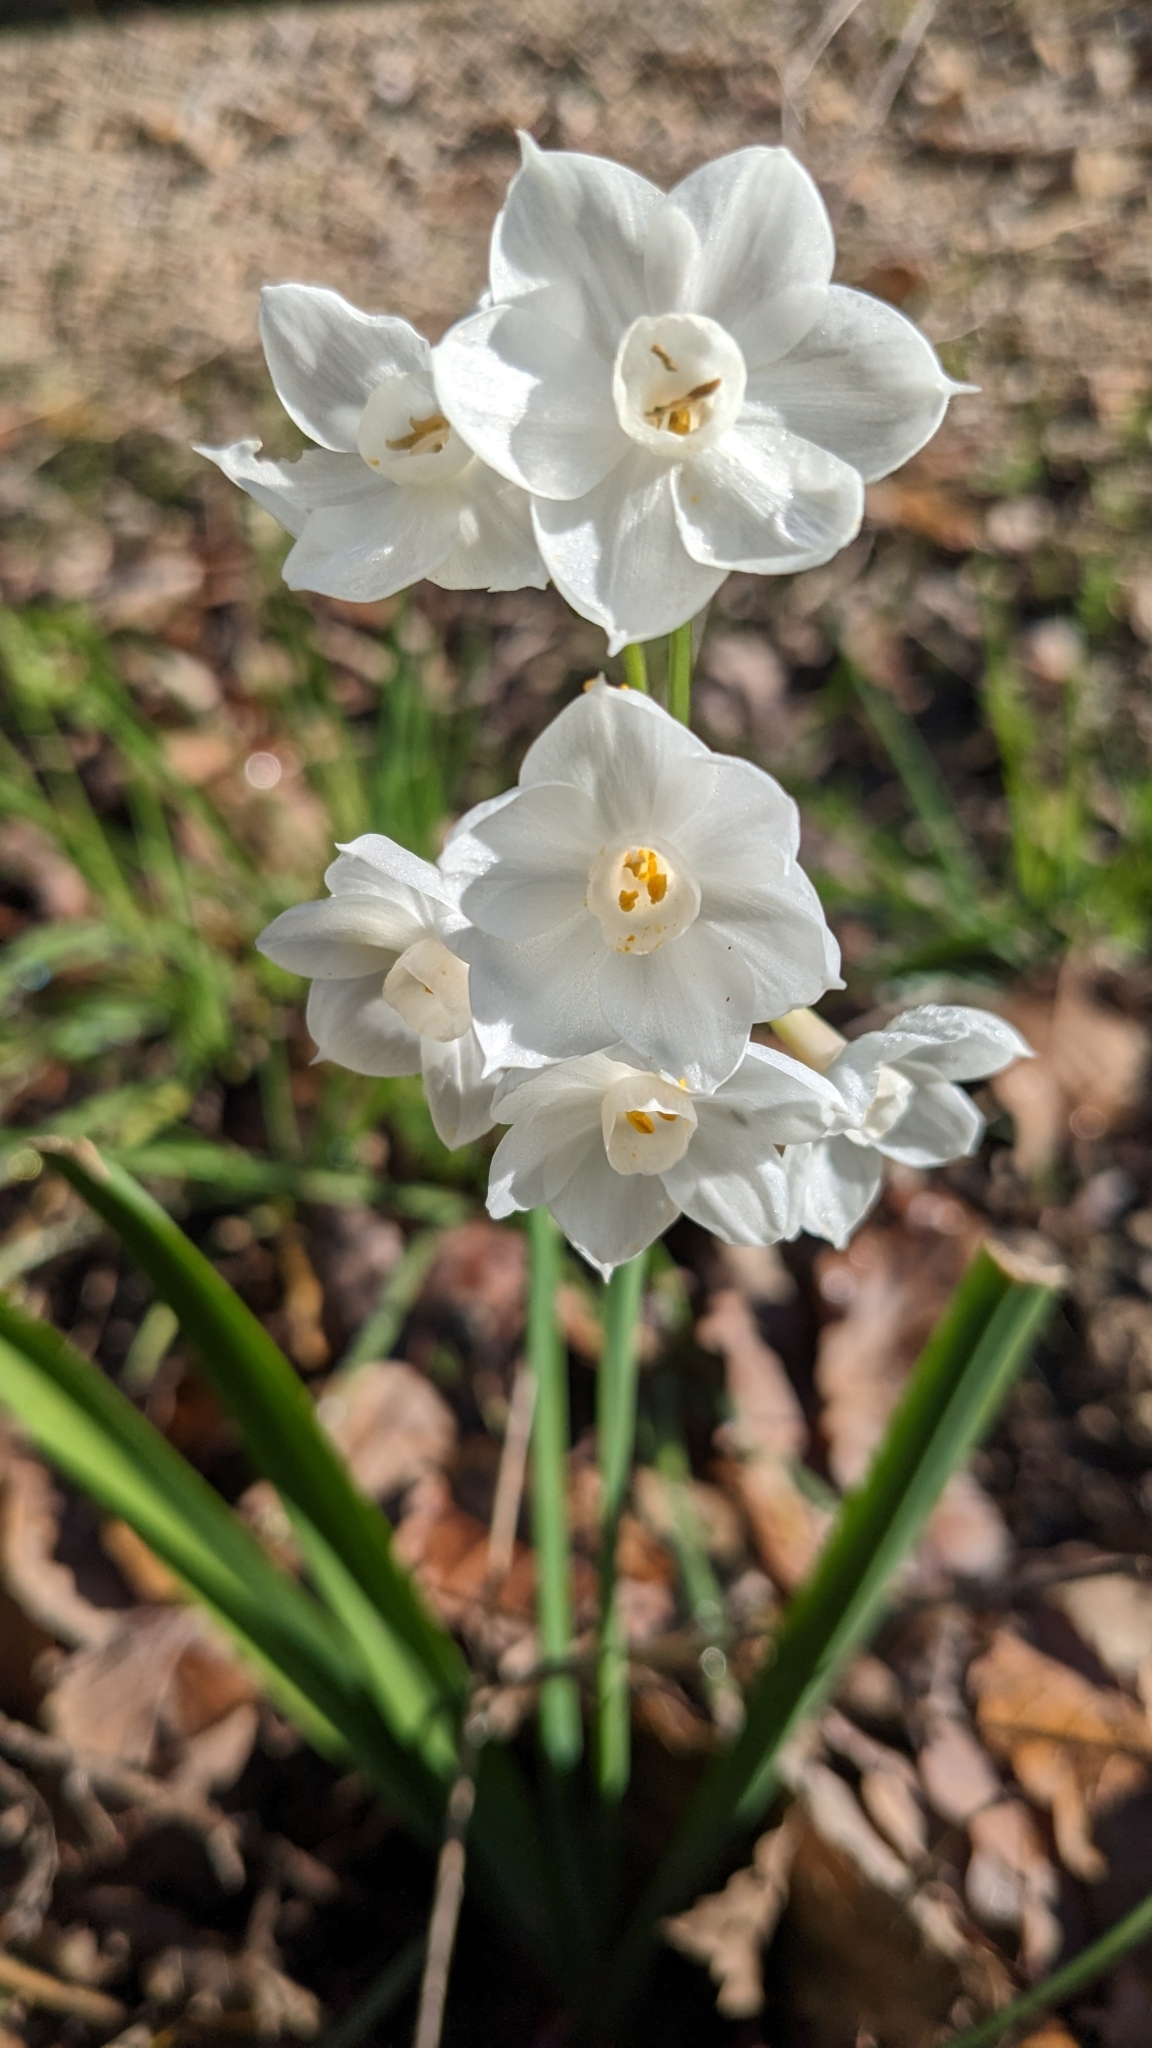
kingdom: Plantae
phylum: Tracheophyta
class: Liliopsida
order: Asparagales
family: Amaryllidaceae
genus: Narcissus
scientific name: Narcissus papyraceus
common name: Paper-white daffodil
